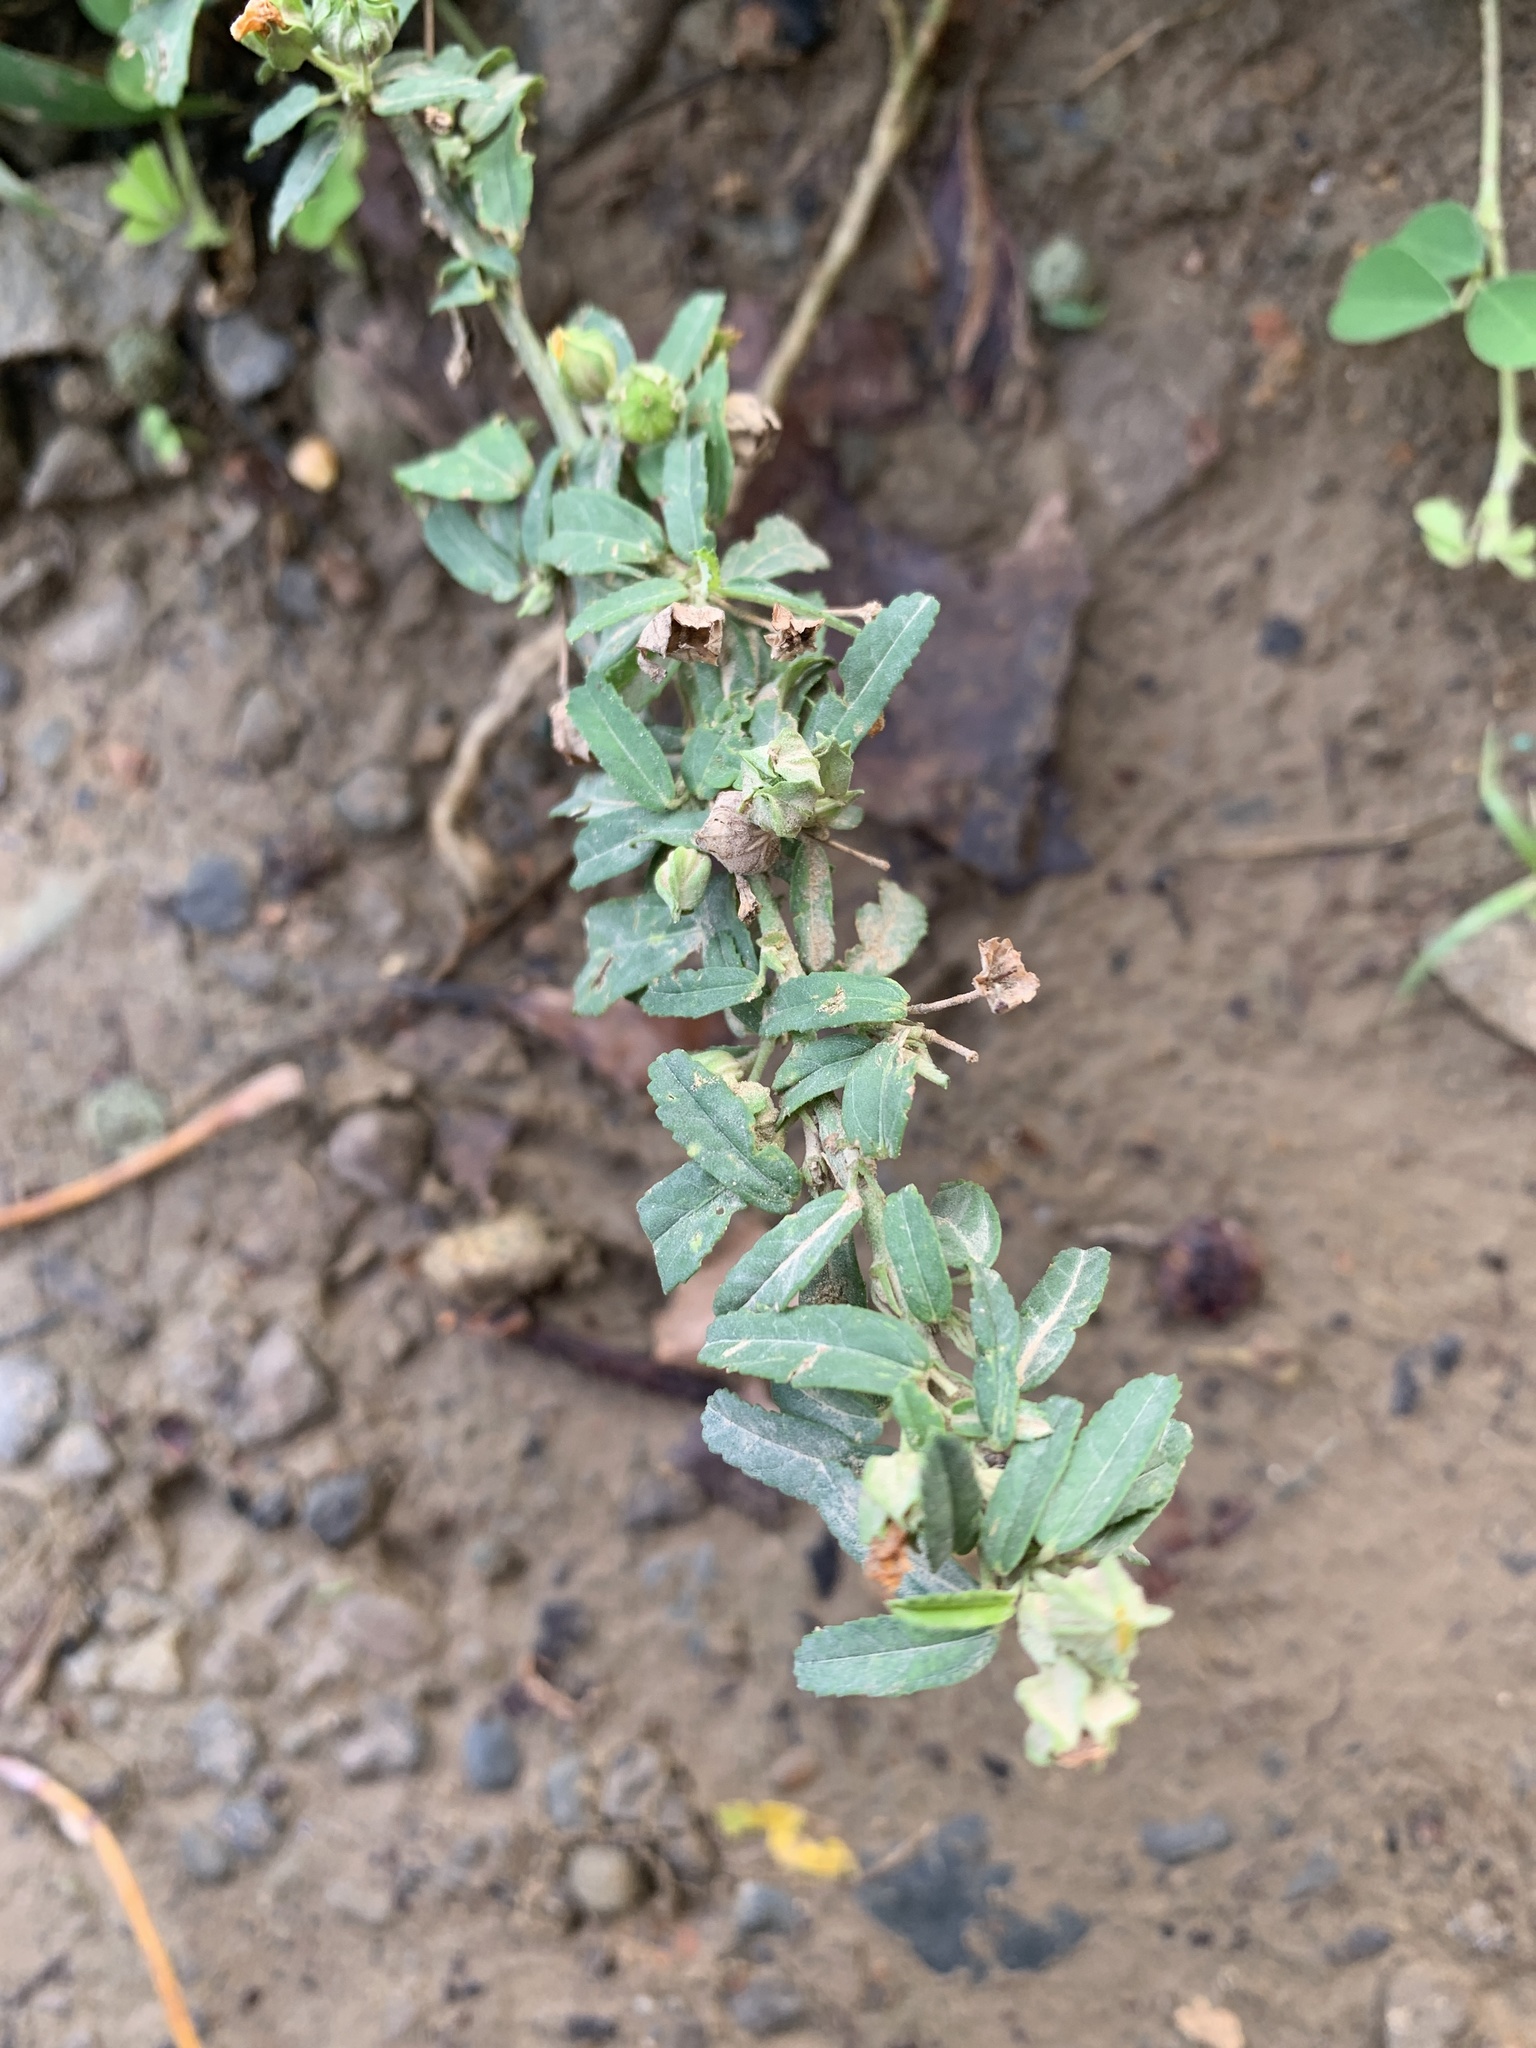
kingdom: Plantae
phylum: Tracheophyta
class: Magnoliopsida
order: Malvales
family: Malvaceae
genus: Sida
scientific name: Sida rhombifolia
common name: Queensland-hemp
